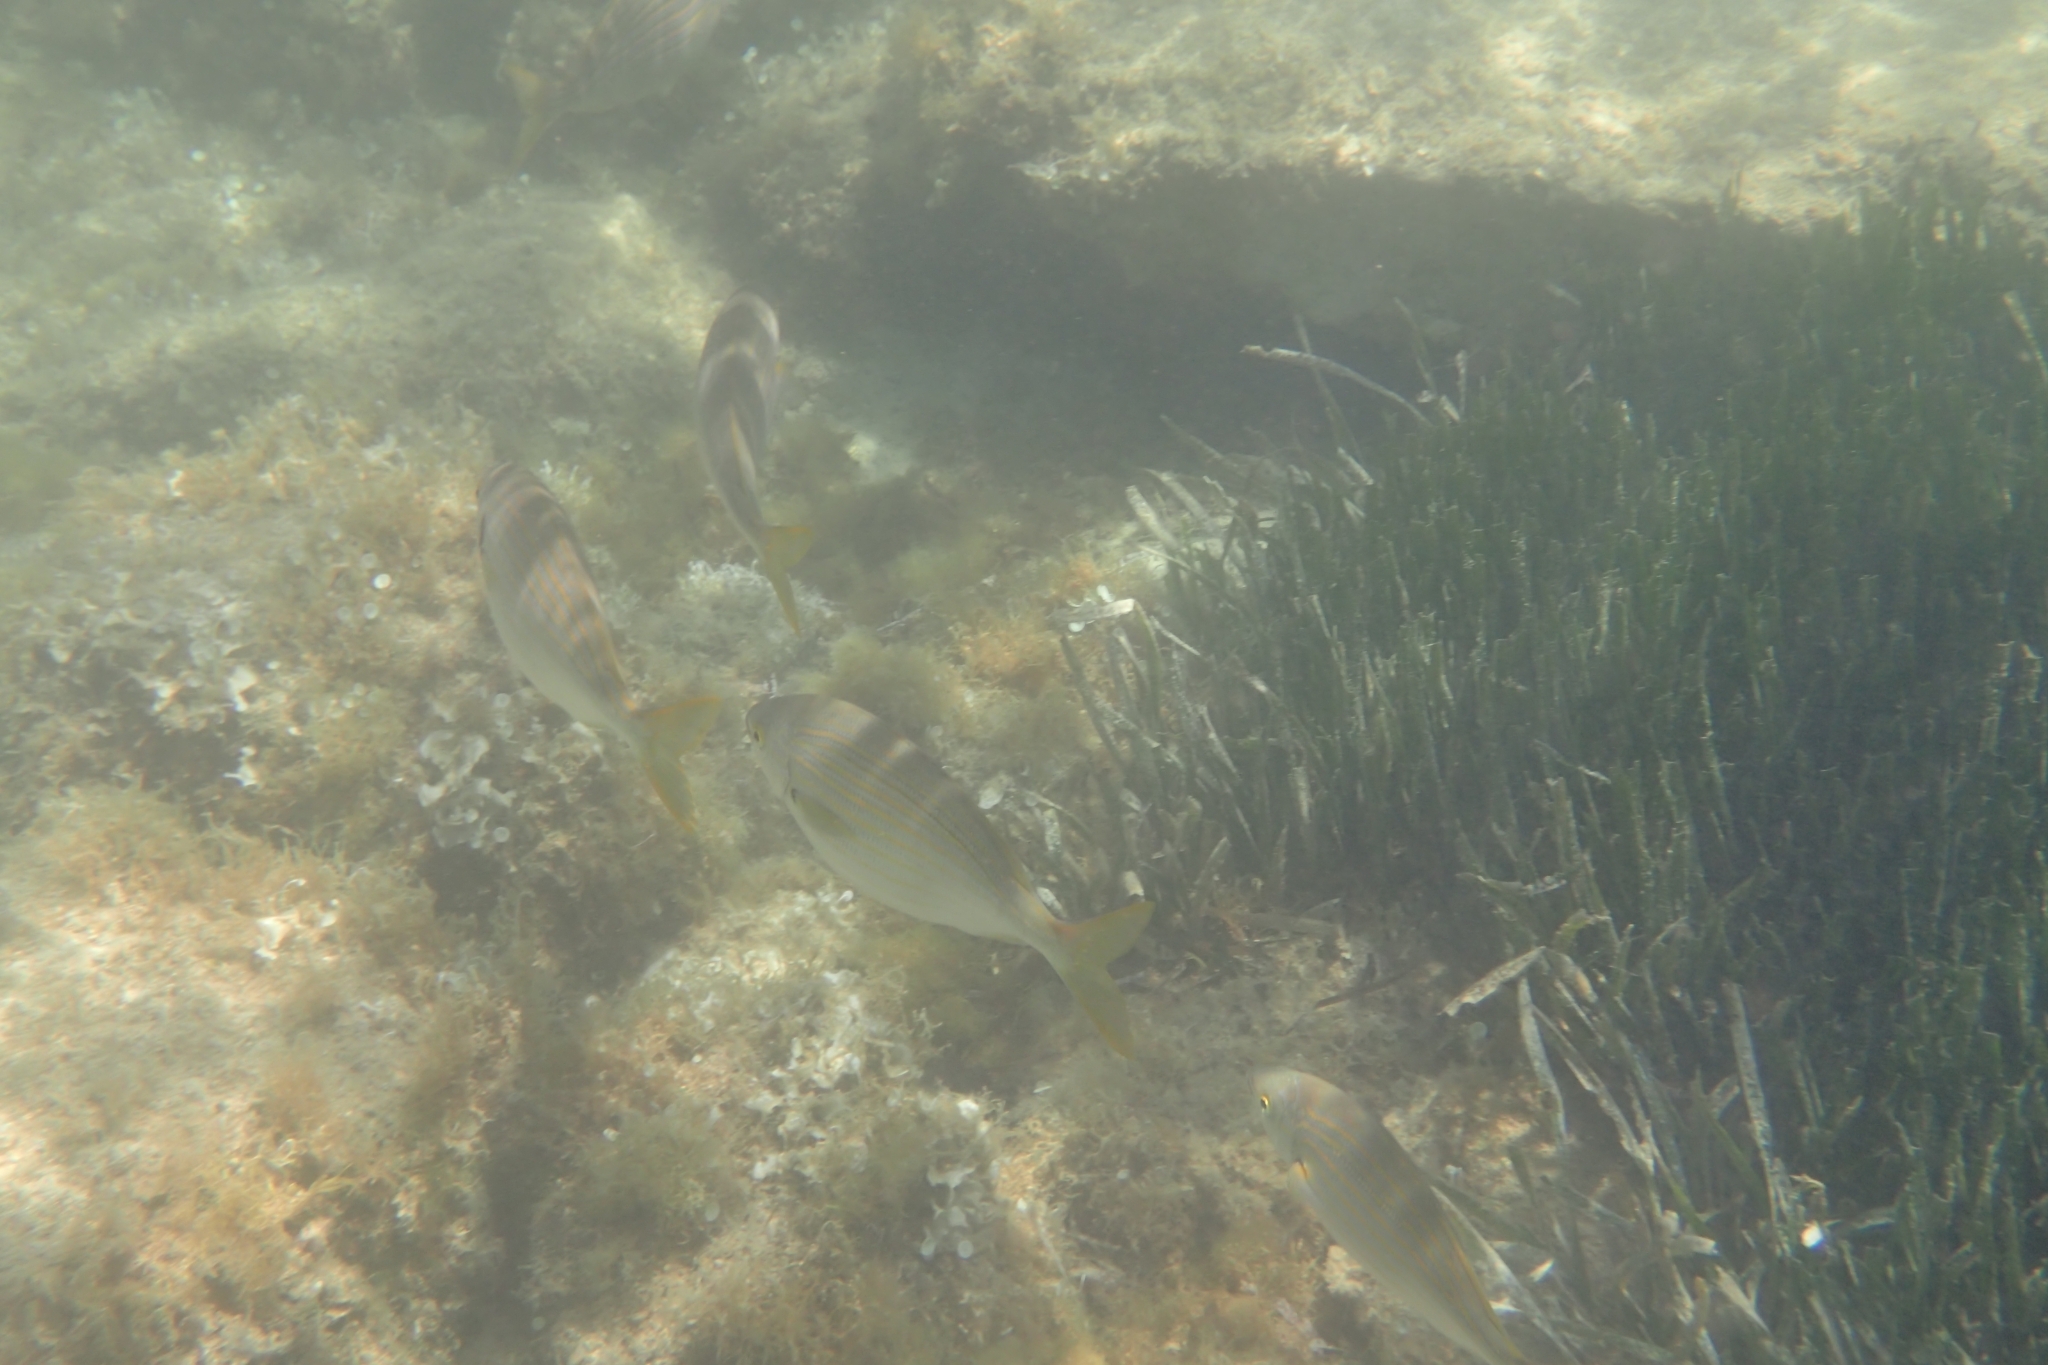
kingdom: Animalia
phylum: Chordata
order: Perciformes
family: Sparidae
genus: Sarpa
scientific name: Sarpa salpa
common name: Salema
